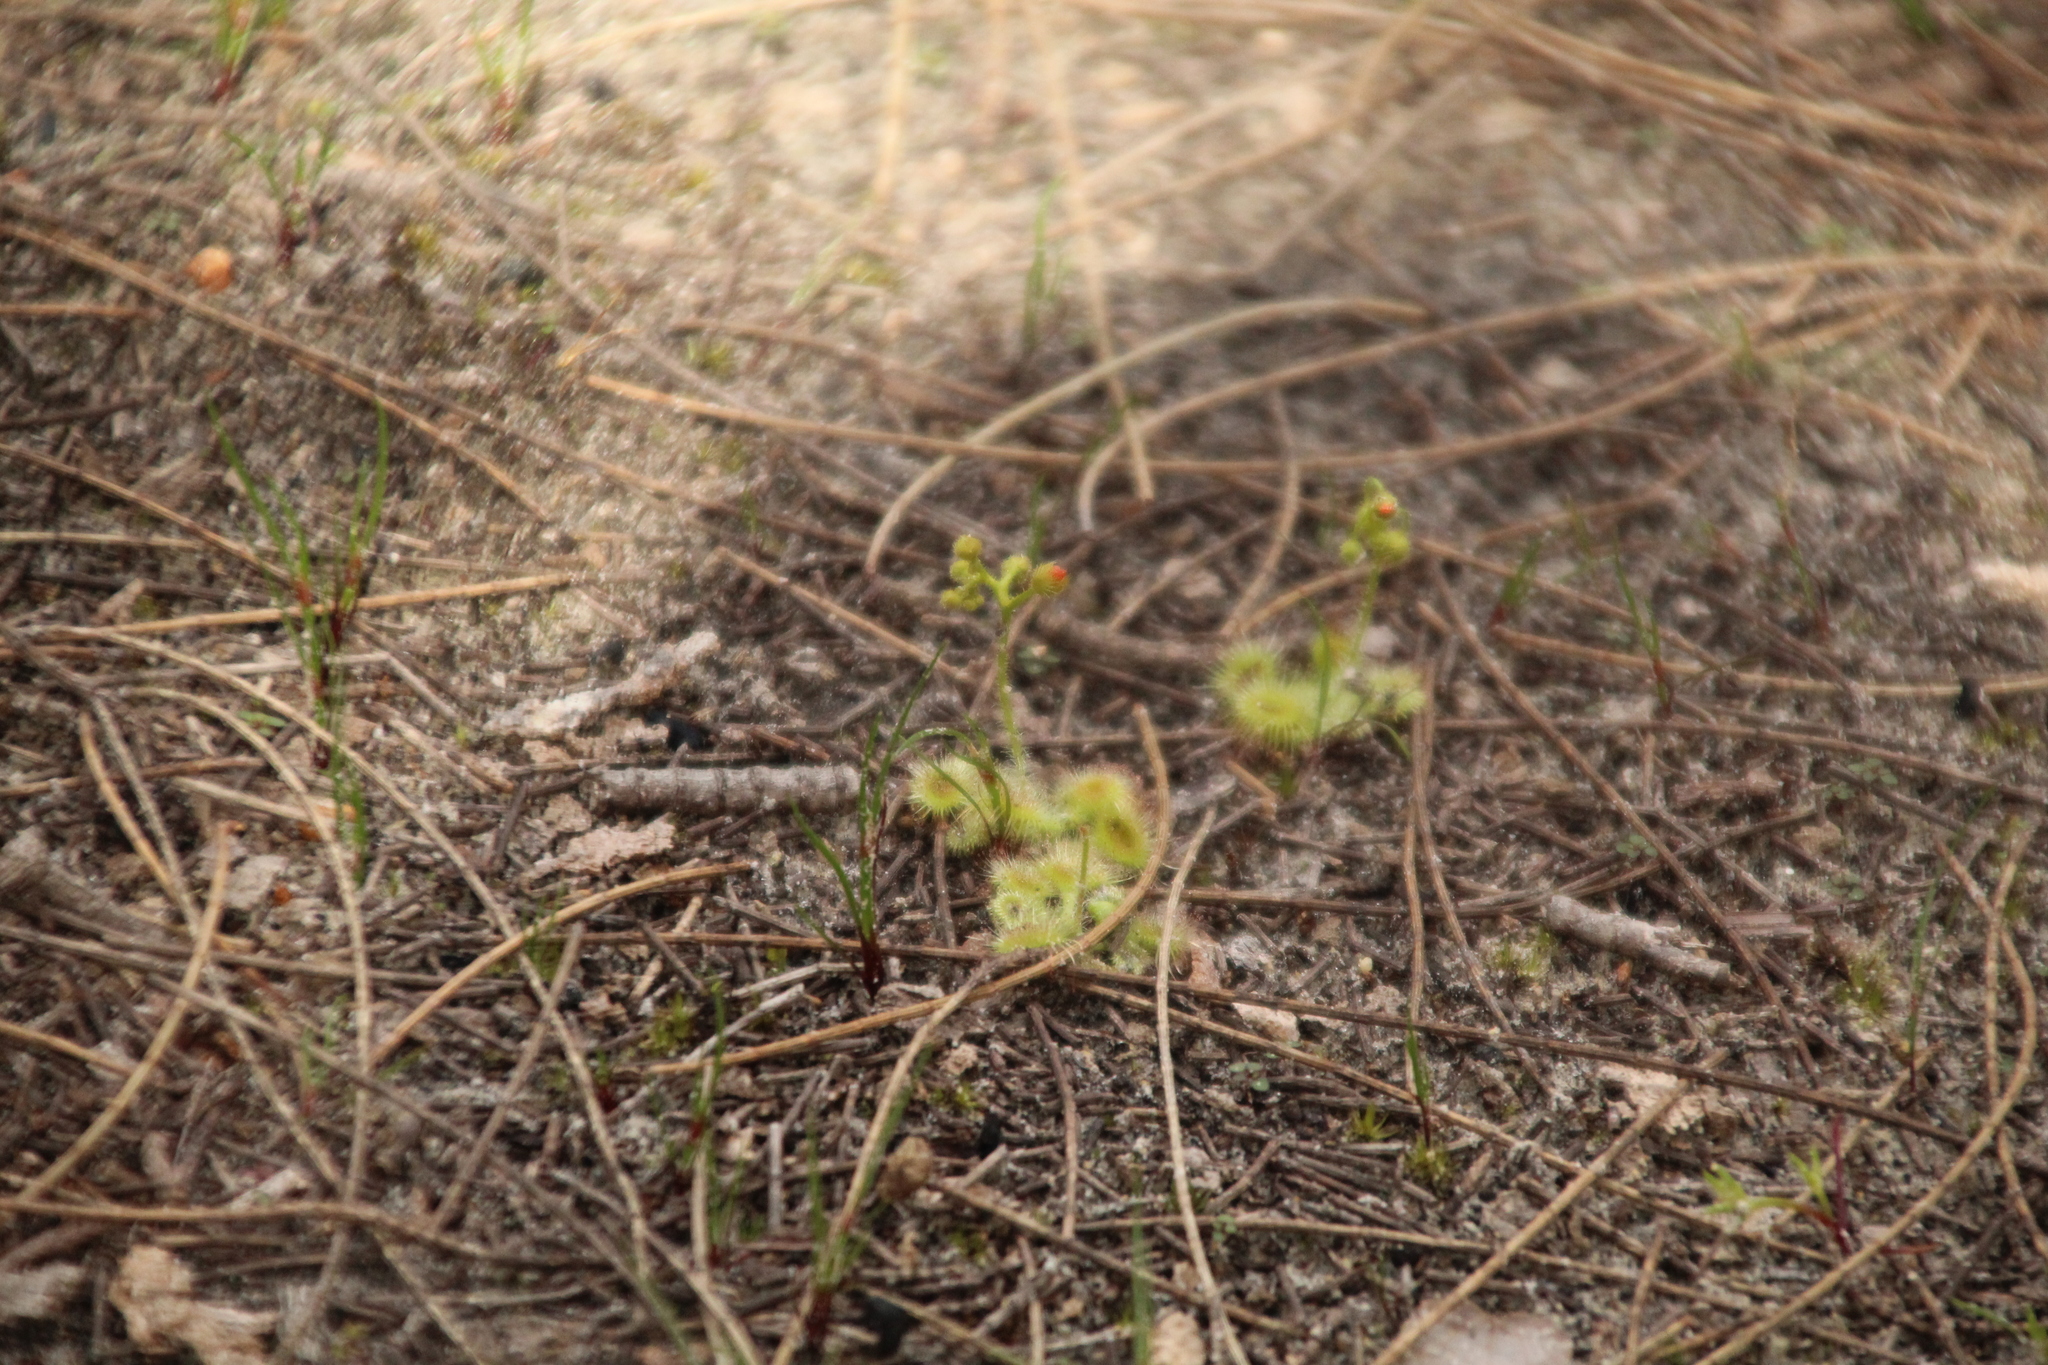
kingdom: Plantae
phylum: Tracheophyta
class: Magnoliopsida
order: Caryophyllales
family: Droseraceae
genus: Drosera
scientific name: Drosera glanduligera
